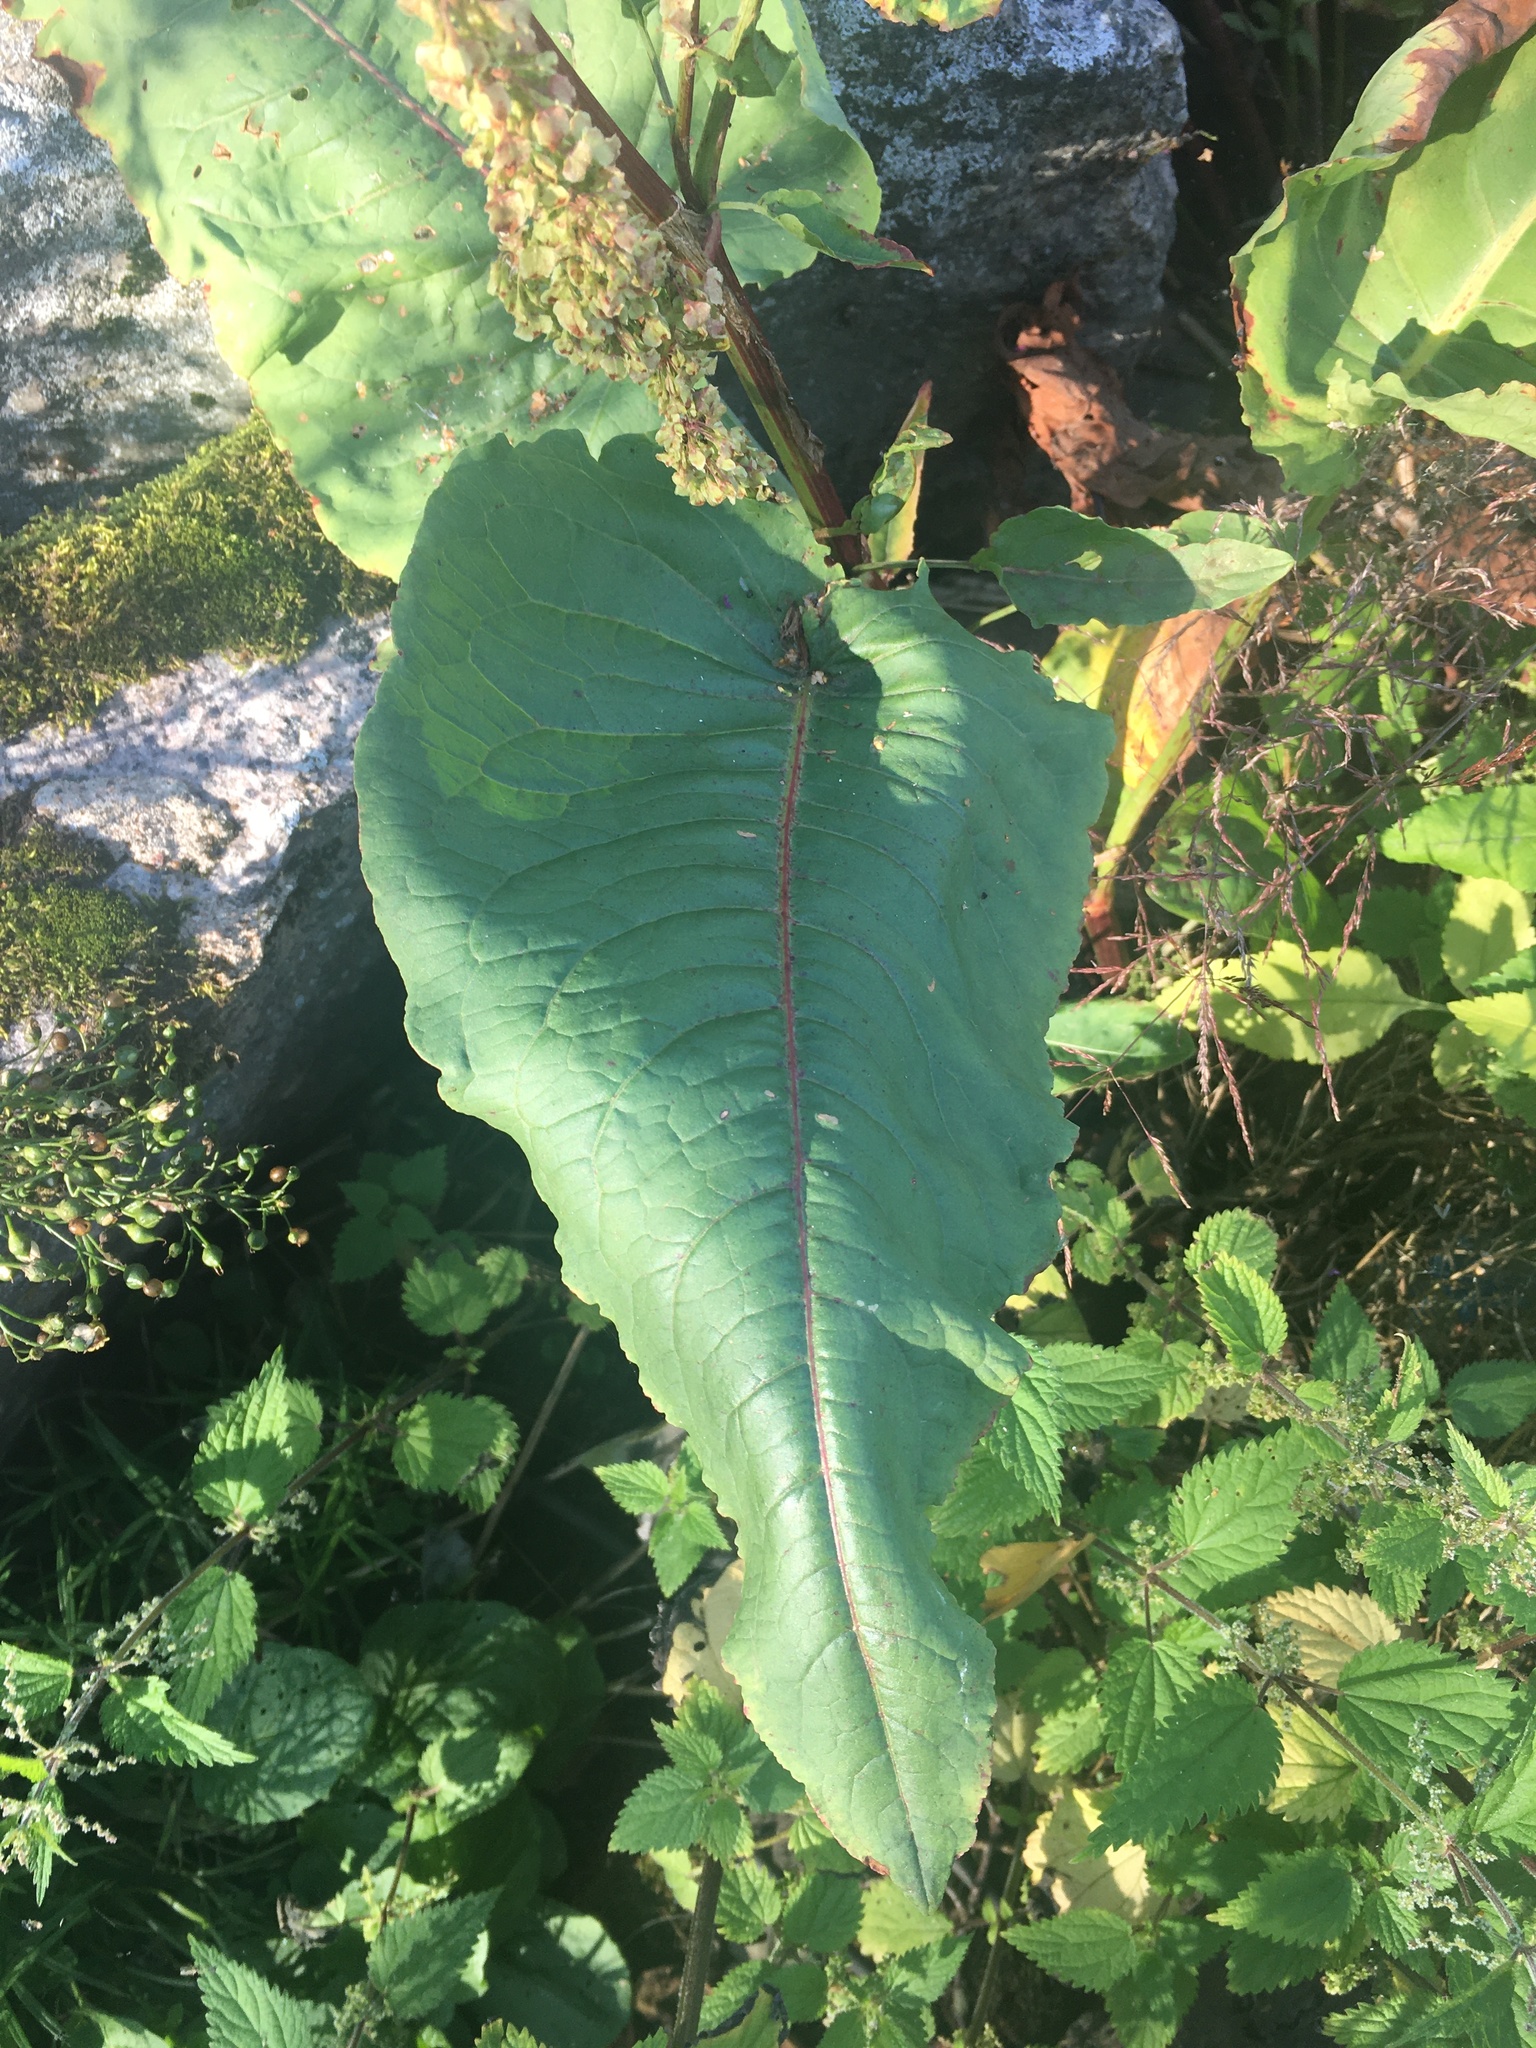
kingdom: Plantae
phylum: Tracheophyta
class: Magnoliopsida
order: Caryophyllales
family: Polygonaceae
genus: Rumex
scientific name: Rumex aquaticus
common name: Scottish dock
